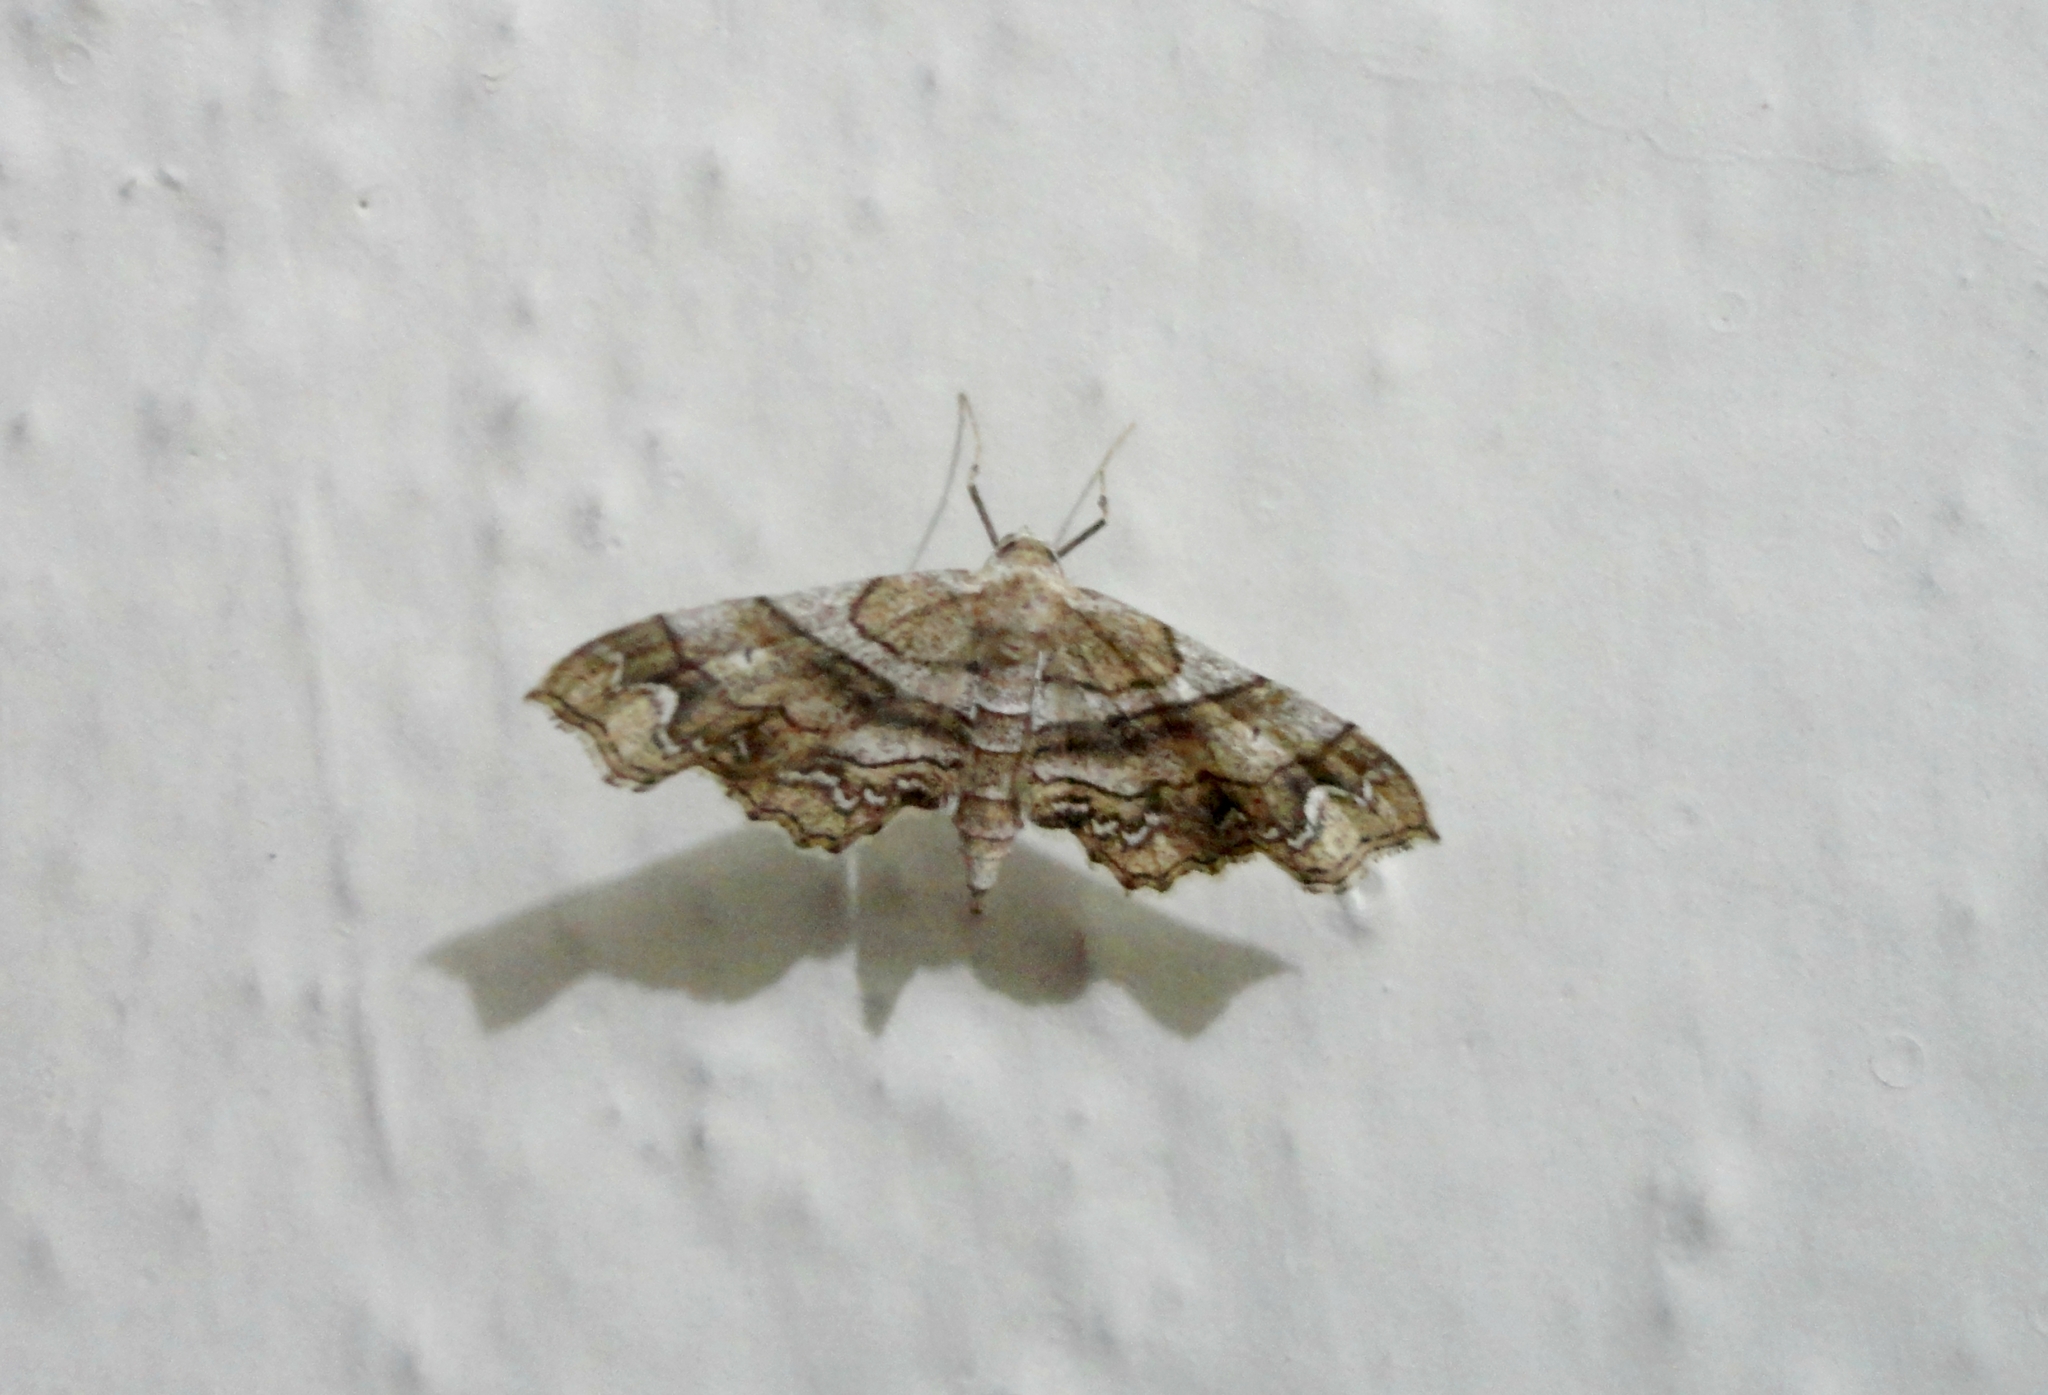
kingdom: Animalia
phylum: Arthropoda
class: Insecta
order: Lepidoptera
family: Geometridae
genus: Odontoptila
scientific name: Odontoptila obrimo
